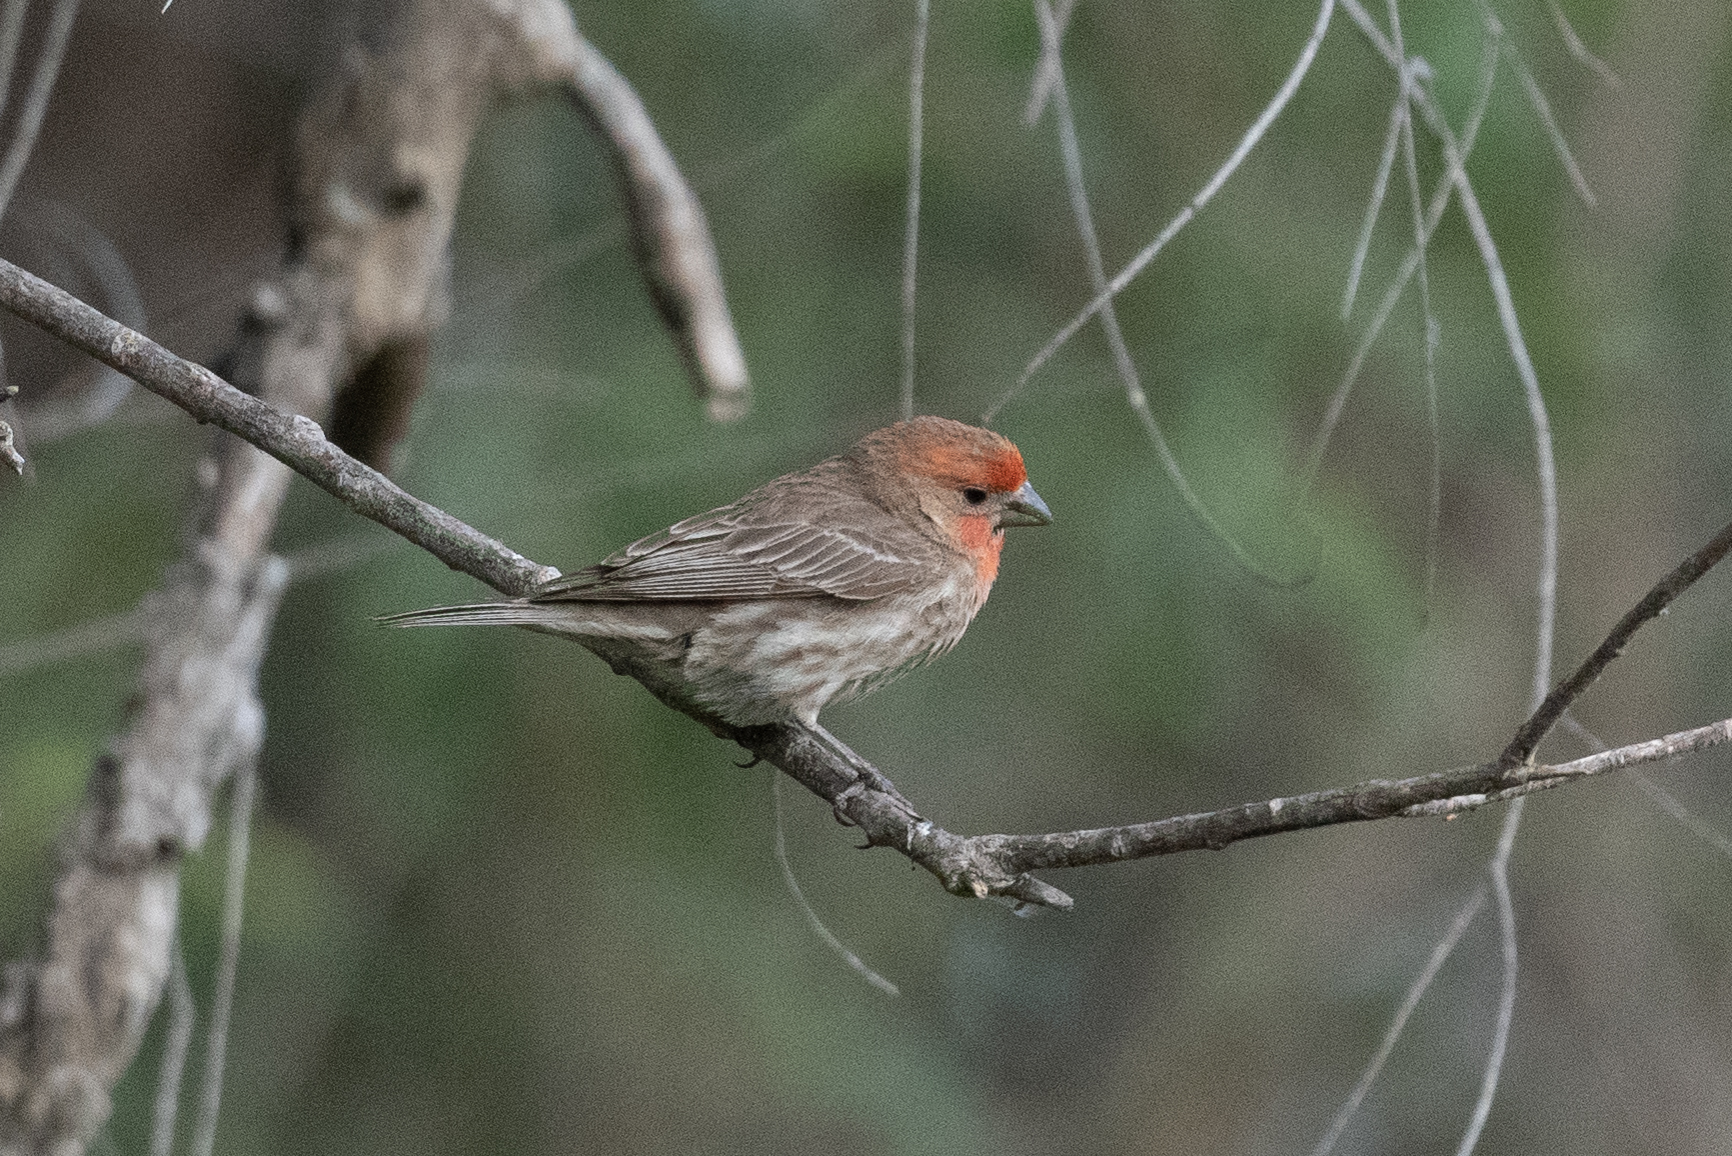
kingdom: Animalia
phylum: Chordata
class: Aves
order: Passeriformes
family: Fringillidae
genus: Haemorhous
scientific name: Haemorhous mexicanus
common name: House finch
